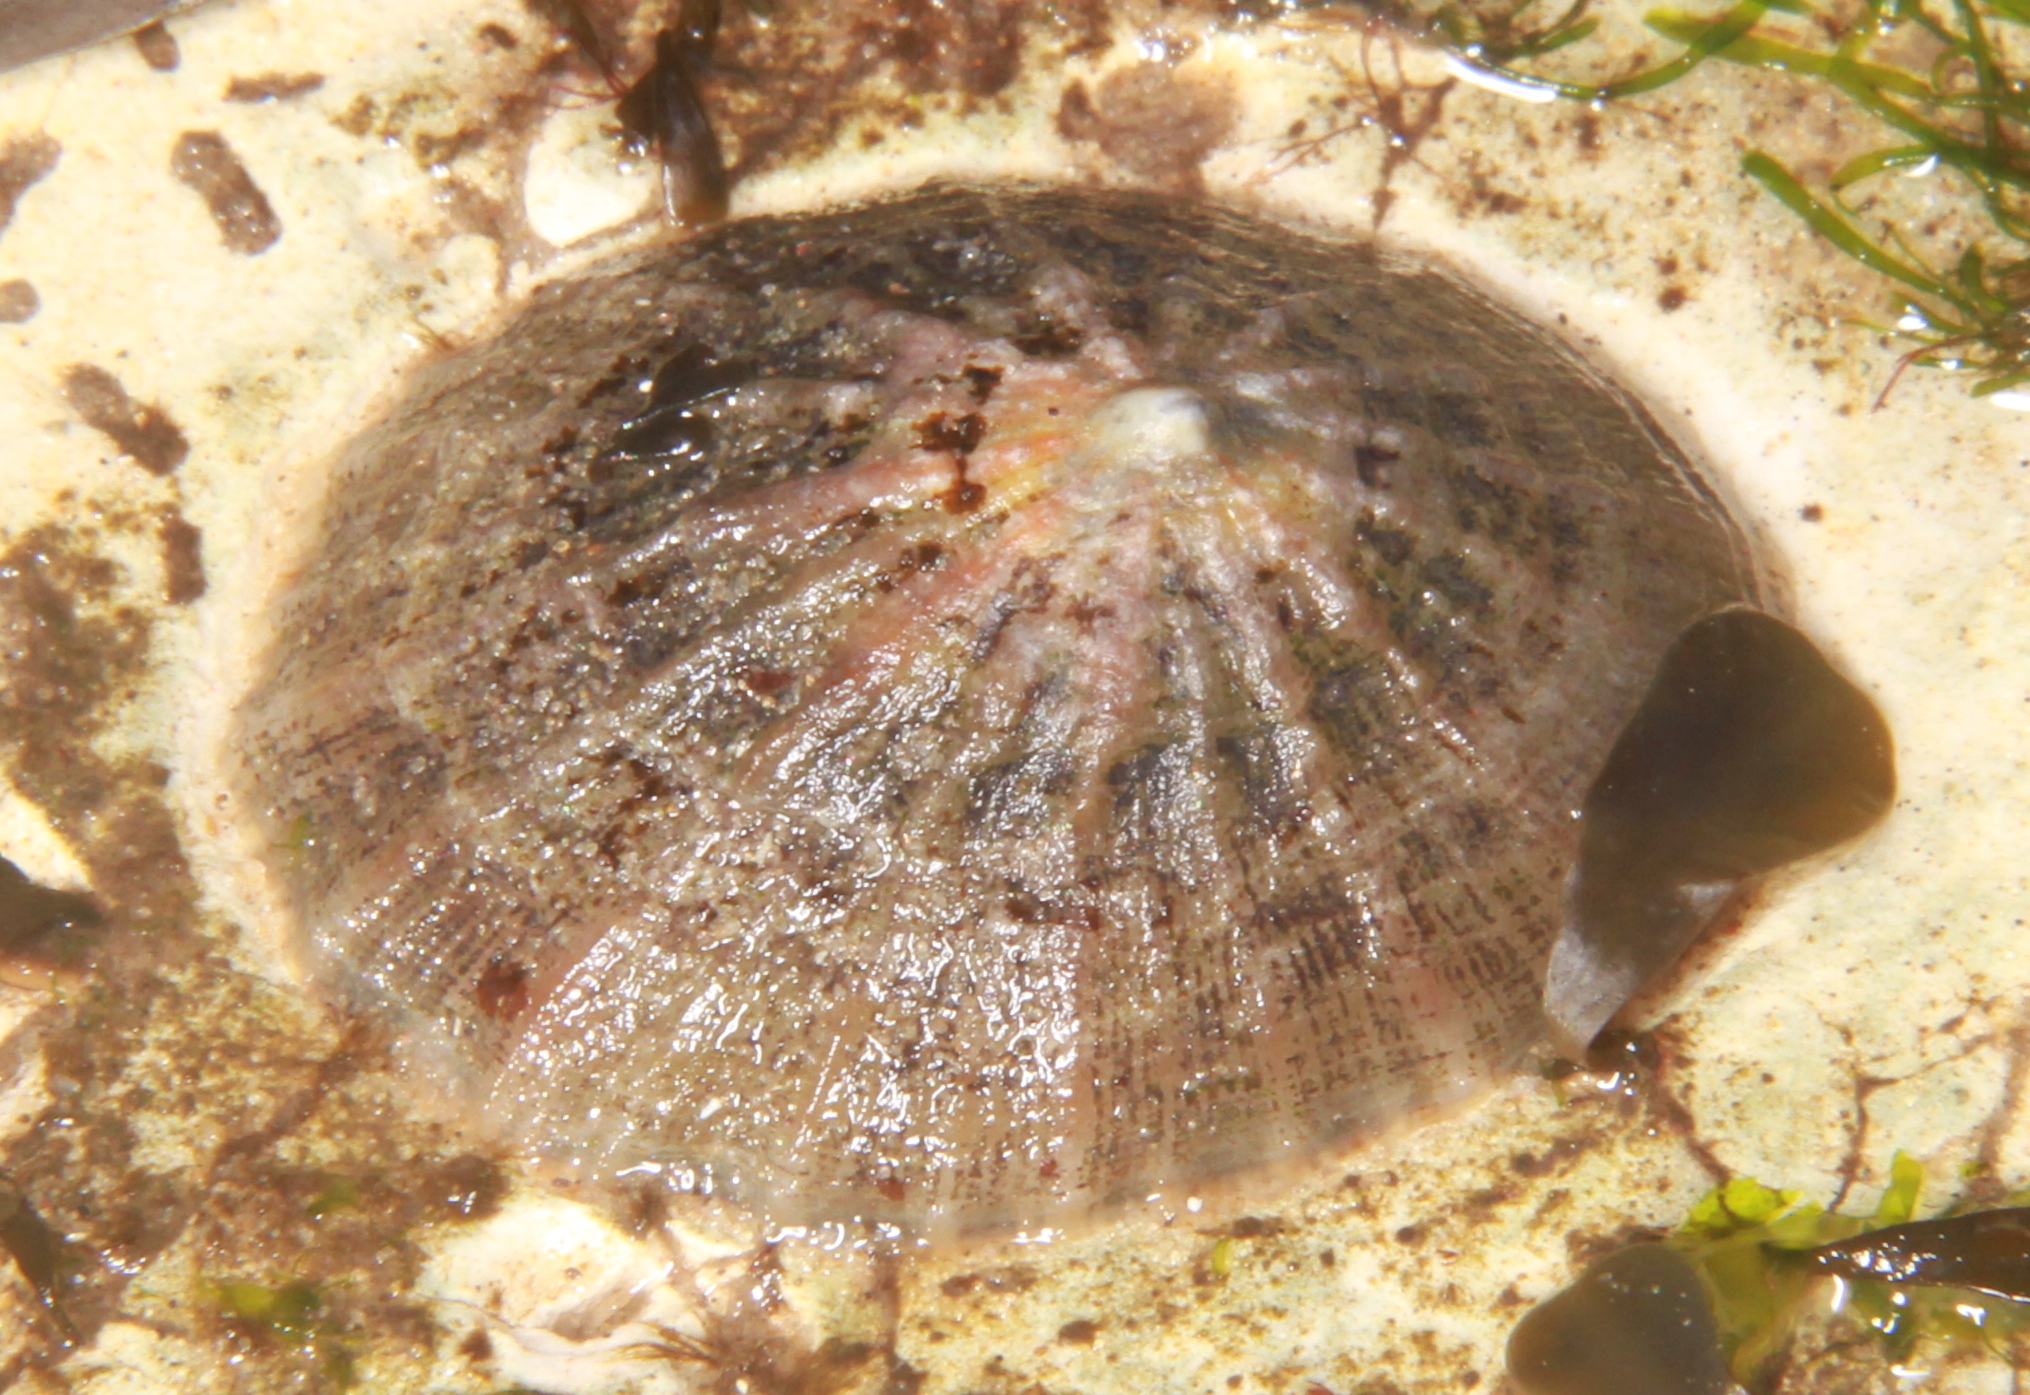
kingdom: Animalia
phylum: Mollusca
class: Gastropoda
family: Patellidae
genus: Patella
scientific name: Patella
